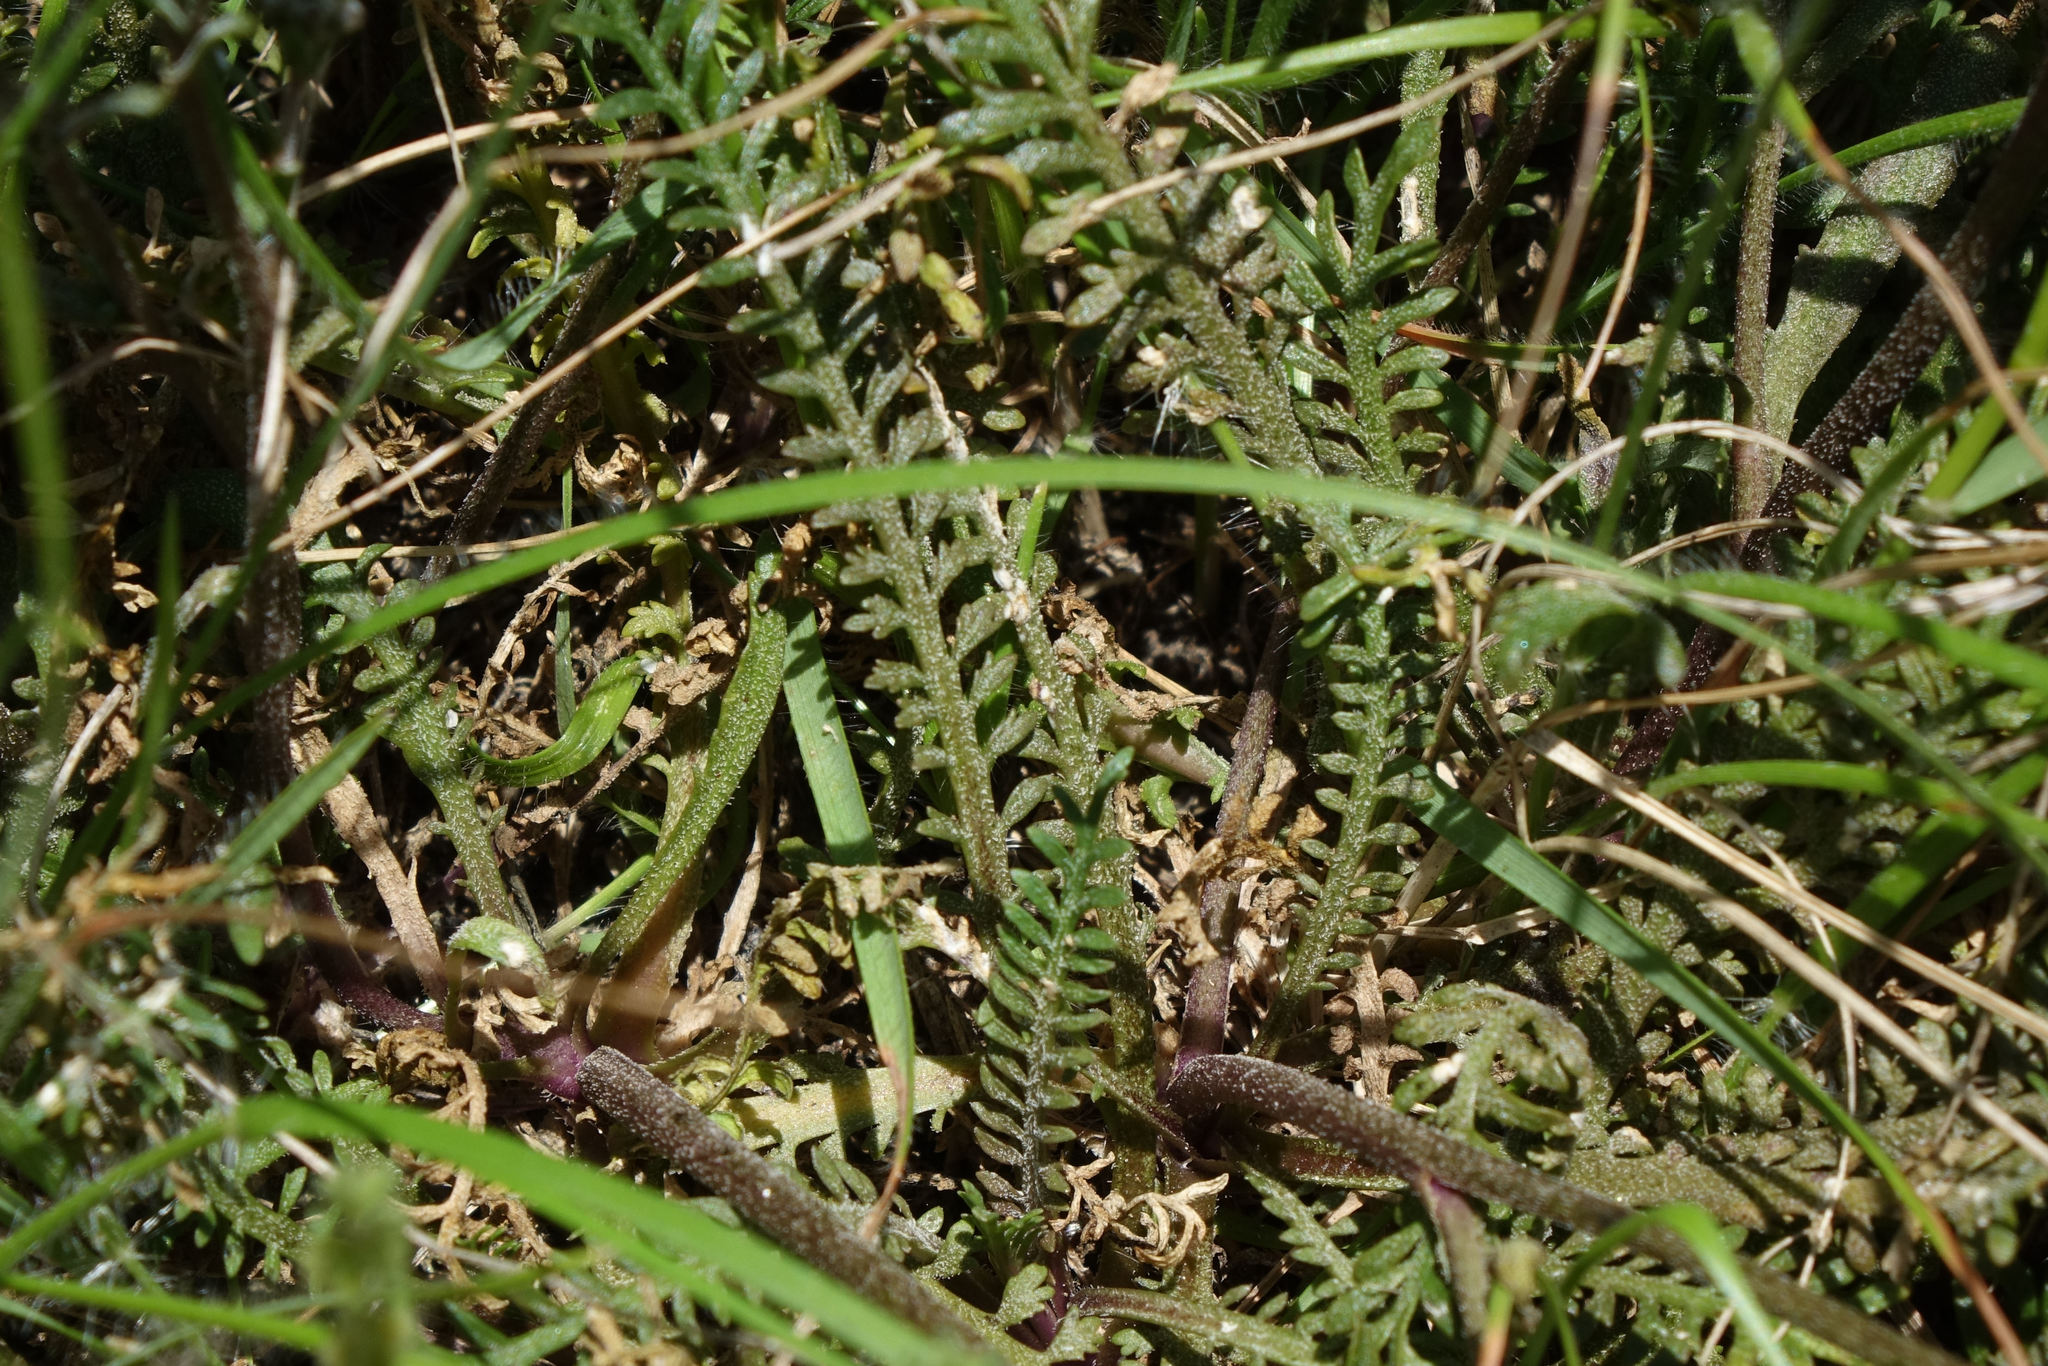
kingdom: Plantae
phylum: Tracheophyta
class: Magnoliopsida
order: Brassicales
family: Brassicaceae
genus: Lepidium
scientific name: Lepidium sisymbrioides
